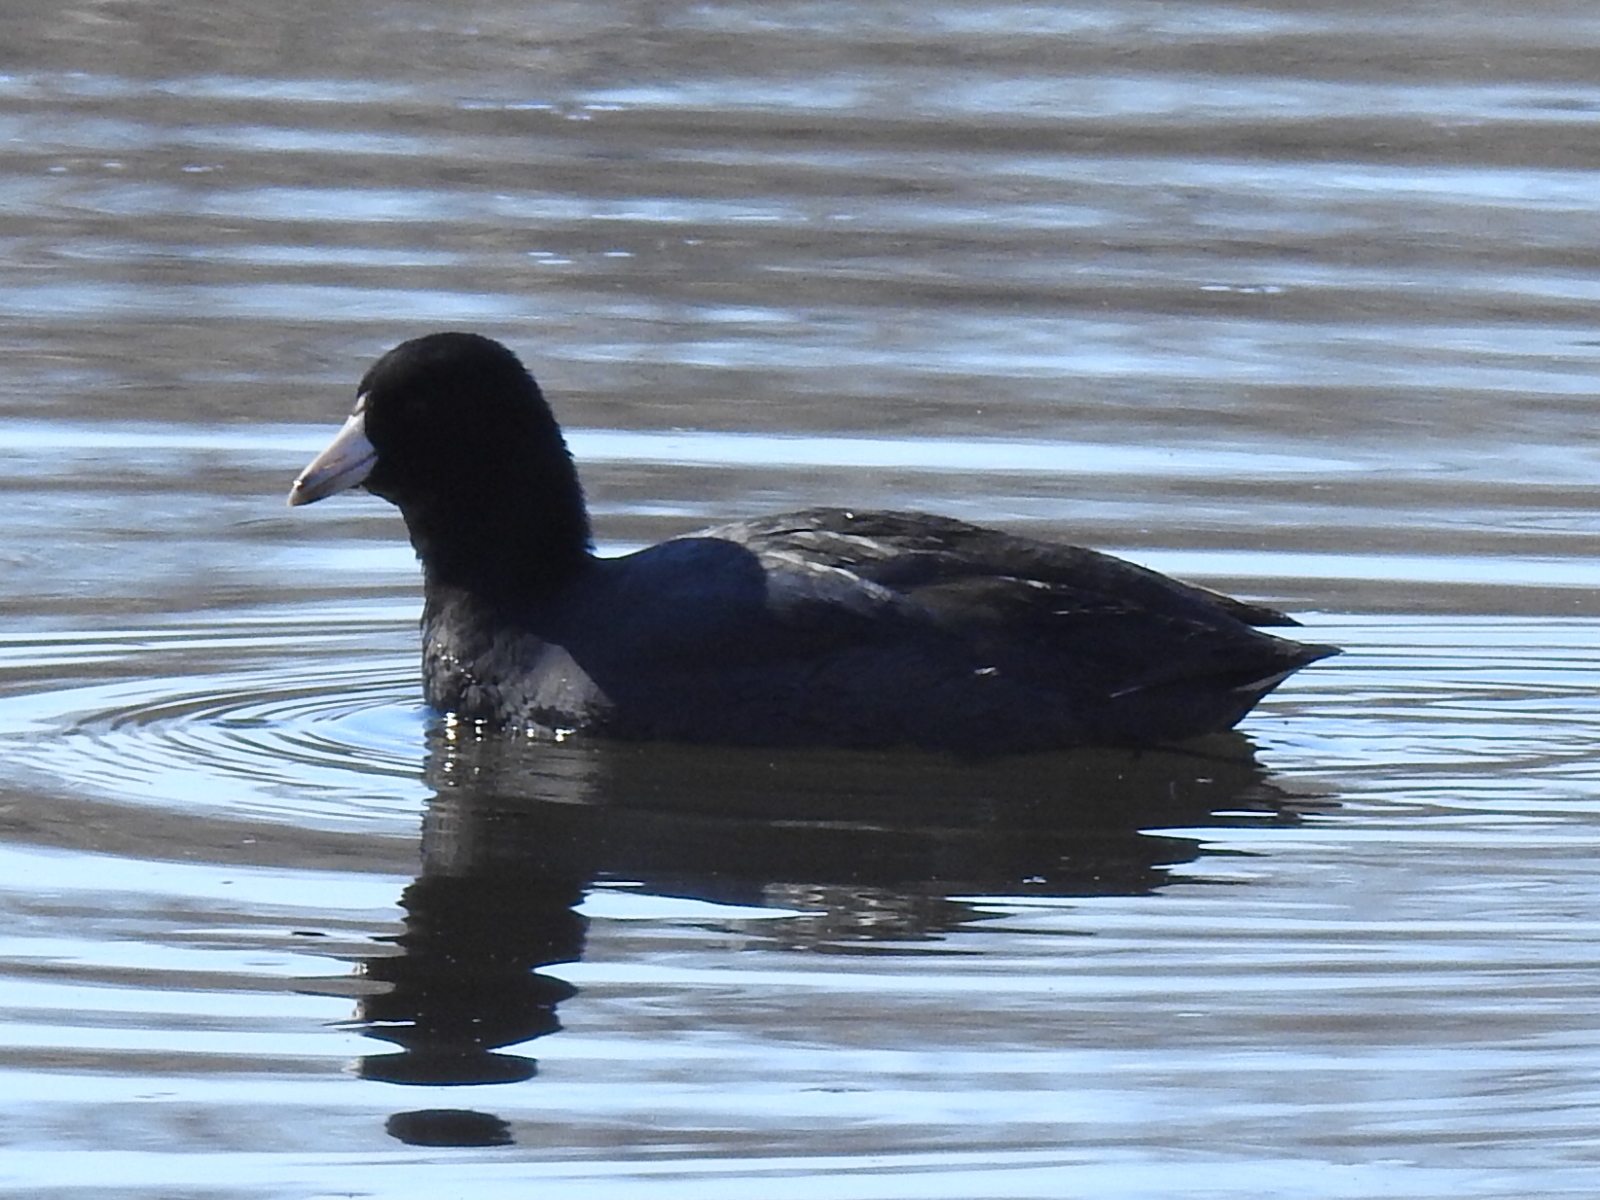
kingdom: Animalia
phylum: Chordata
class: Aves
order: Gruiformes
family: Rallidae
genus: Fulica
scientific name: Fulica americana
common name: American coot
